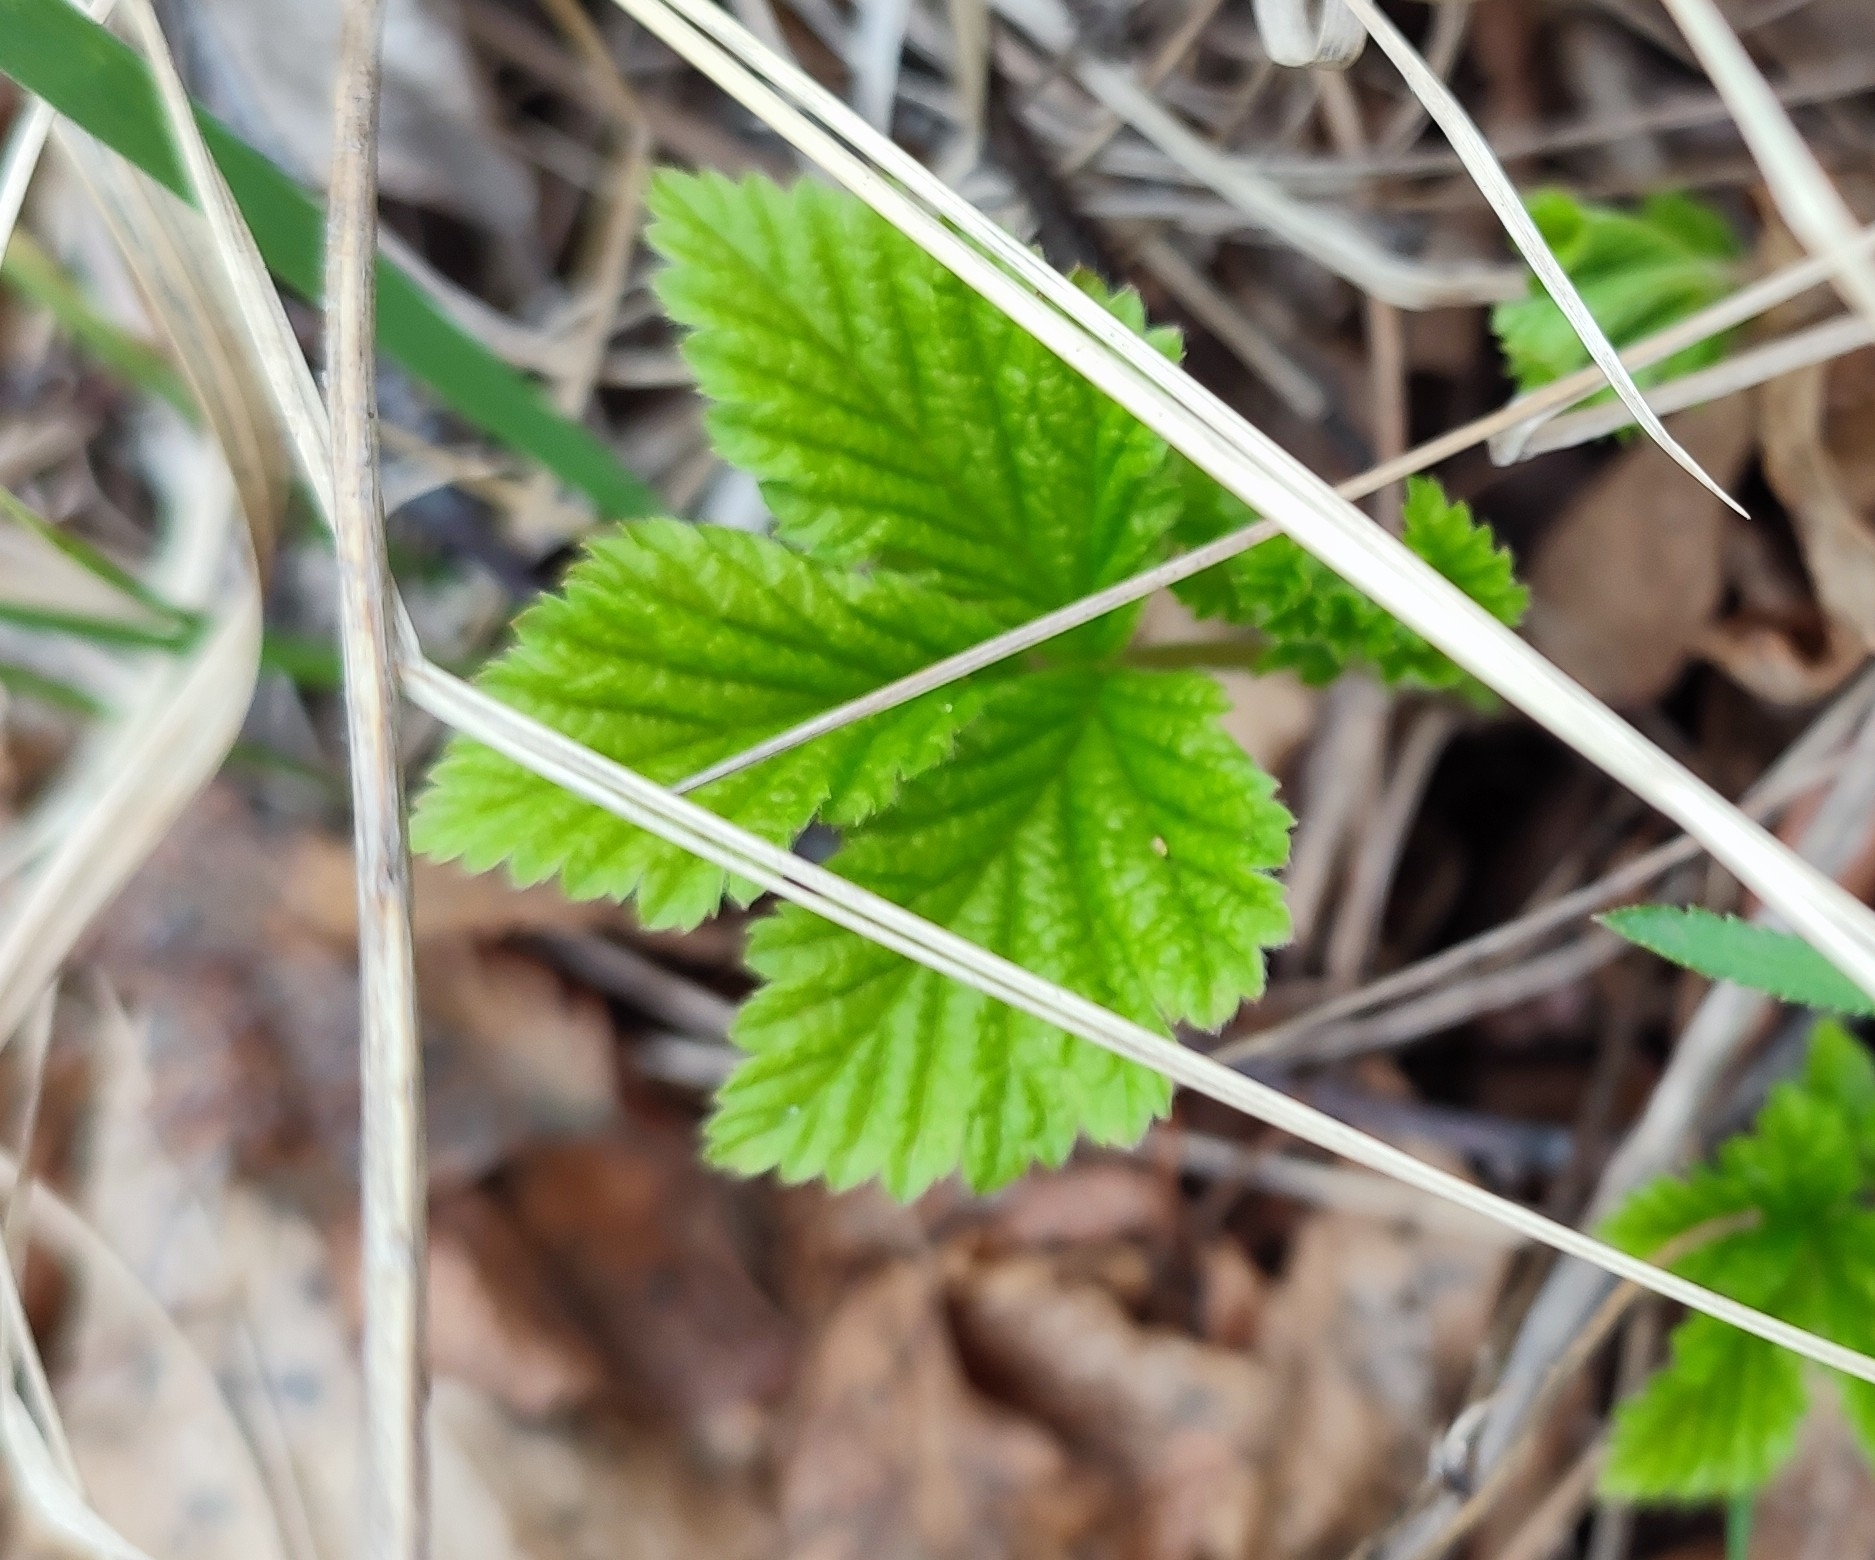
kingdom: Plantae
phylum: Tracheophyta
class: Magnoliopsida
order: Rosales
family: Rosaceae
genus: Rubus
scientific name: Rubus saxatilis
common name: Stone bramble
